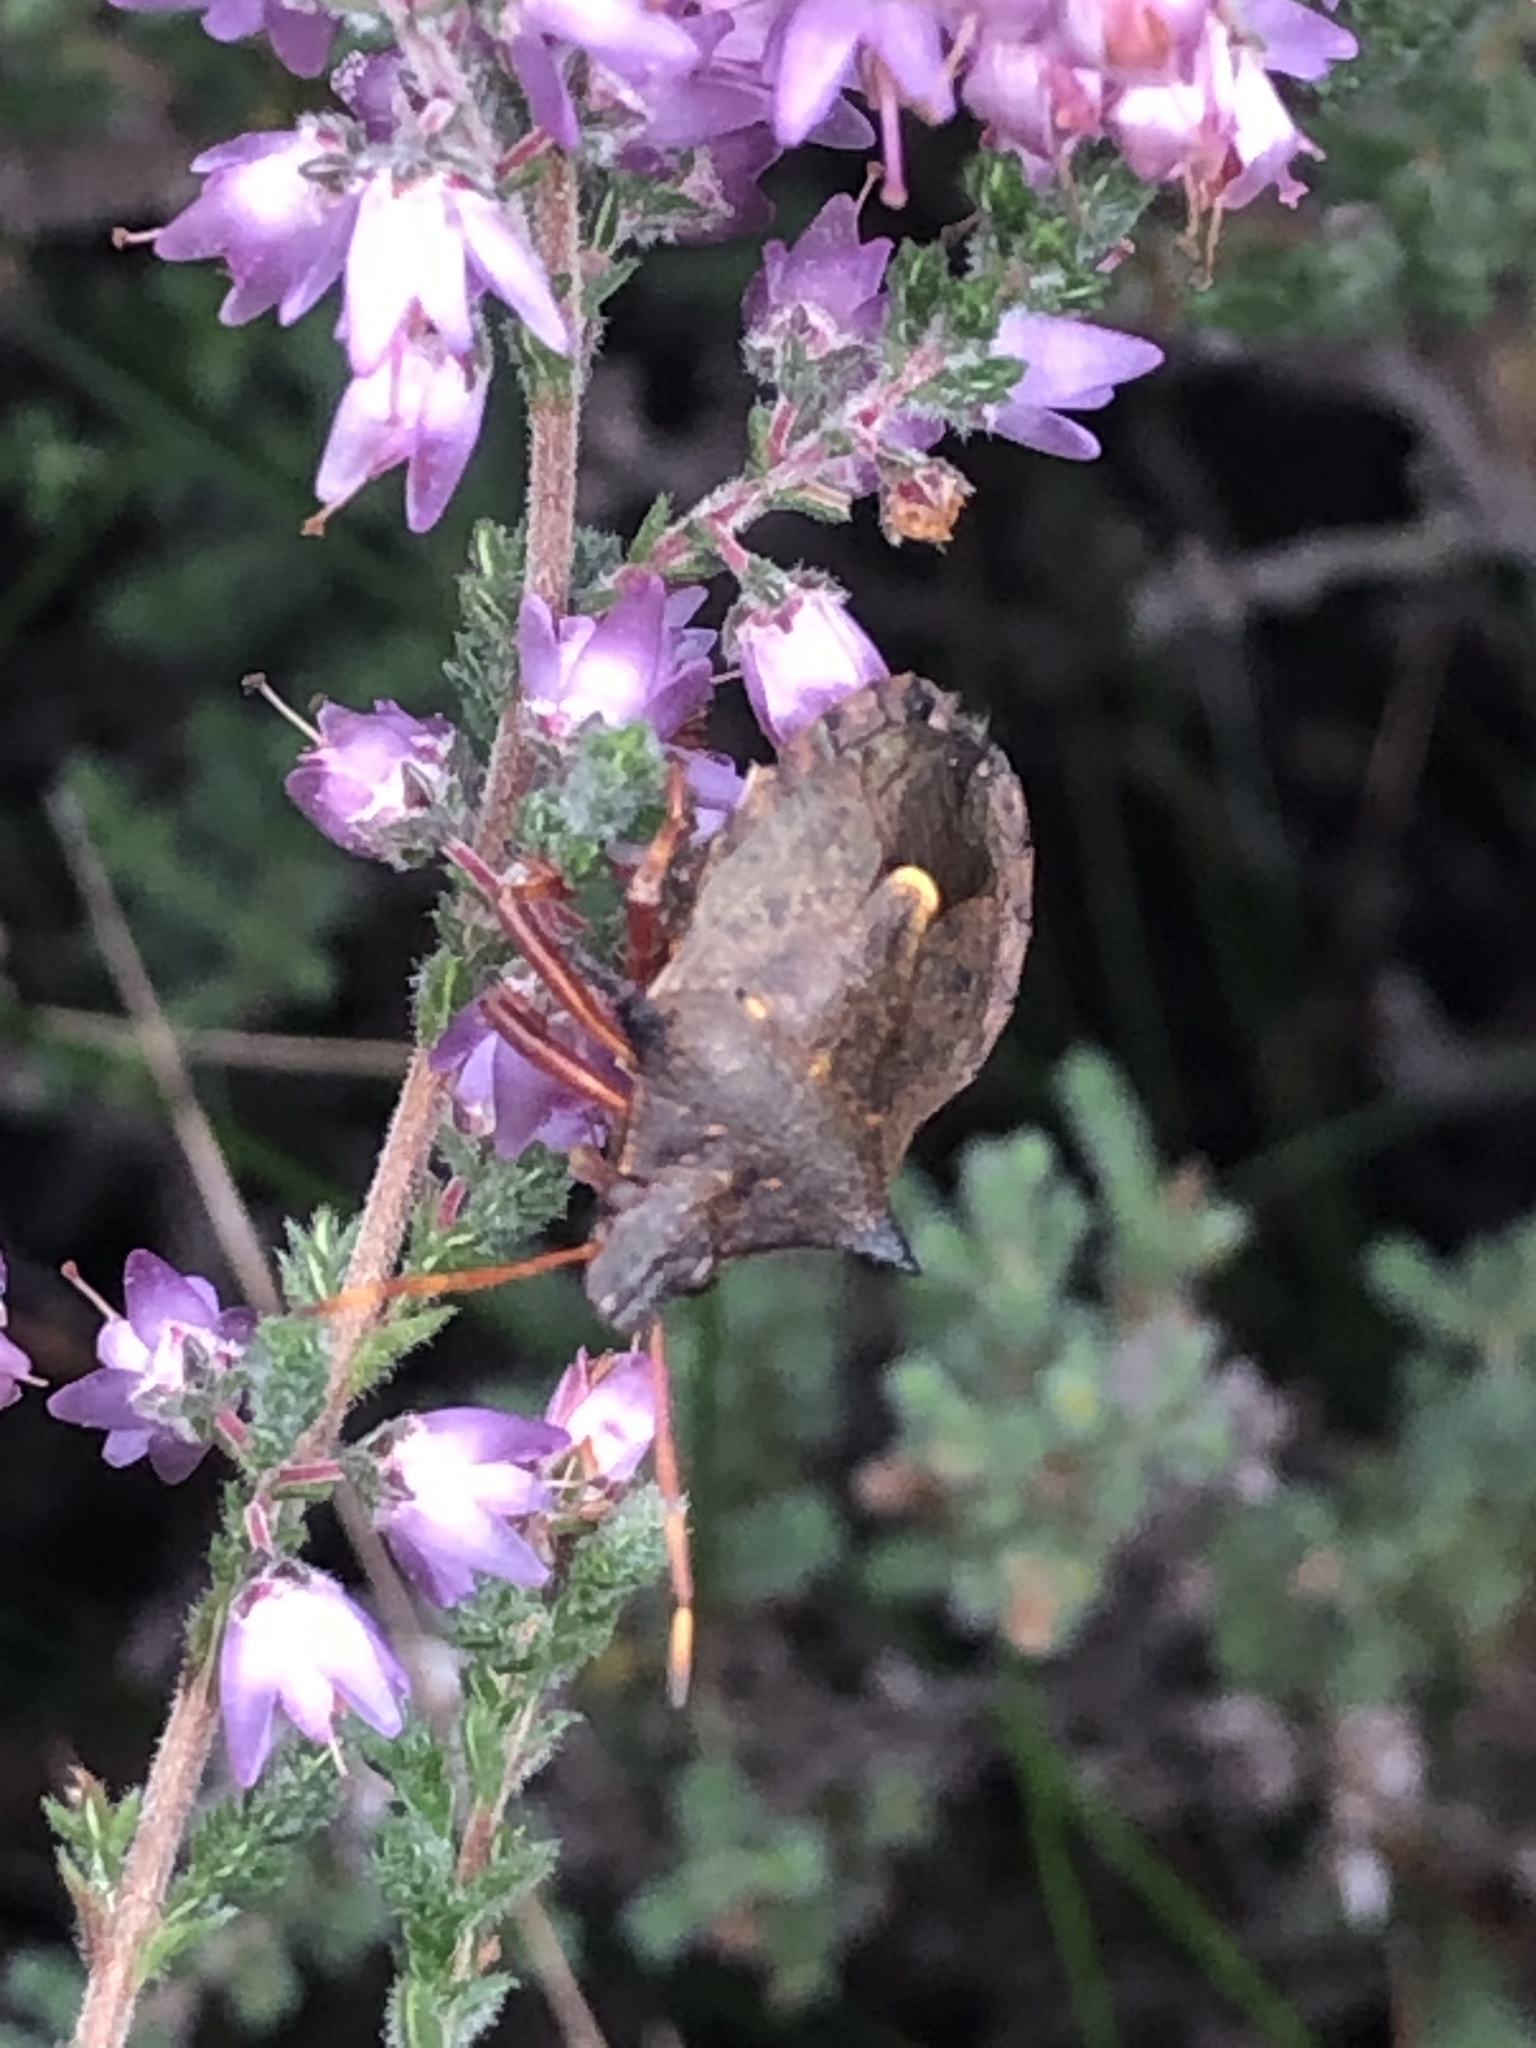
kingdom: Animalia
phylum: Arthropoda
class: Insecta
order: Hemiptera
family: Pentatomidae
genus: Picromerus
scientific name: Picromerus bidens
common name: Spiked shieldbug
